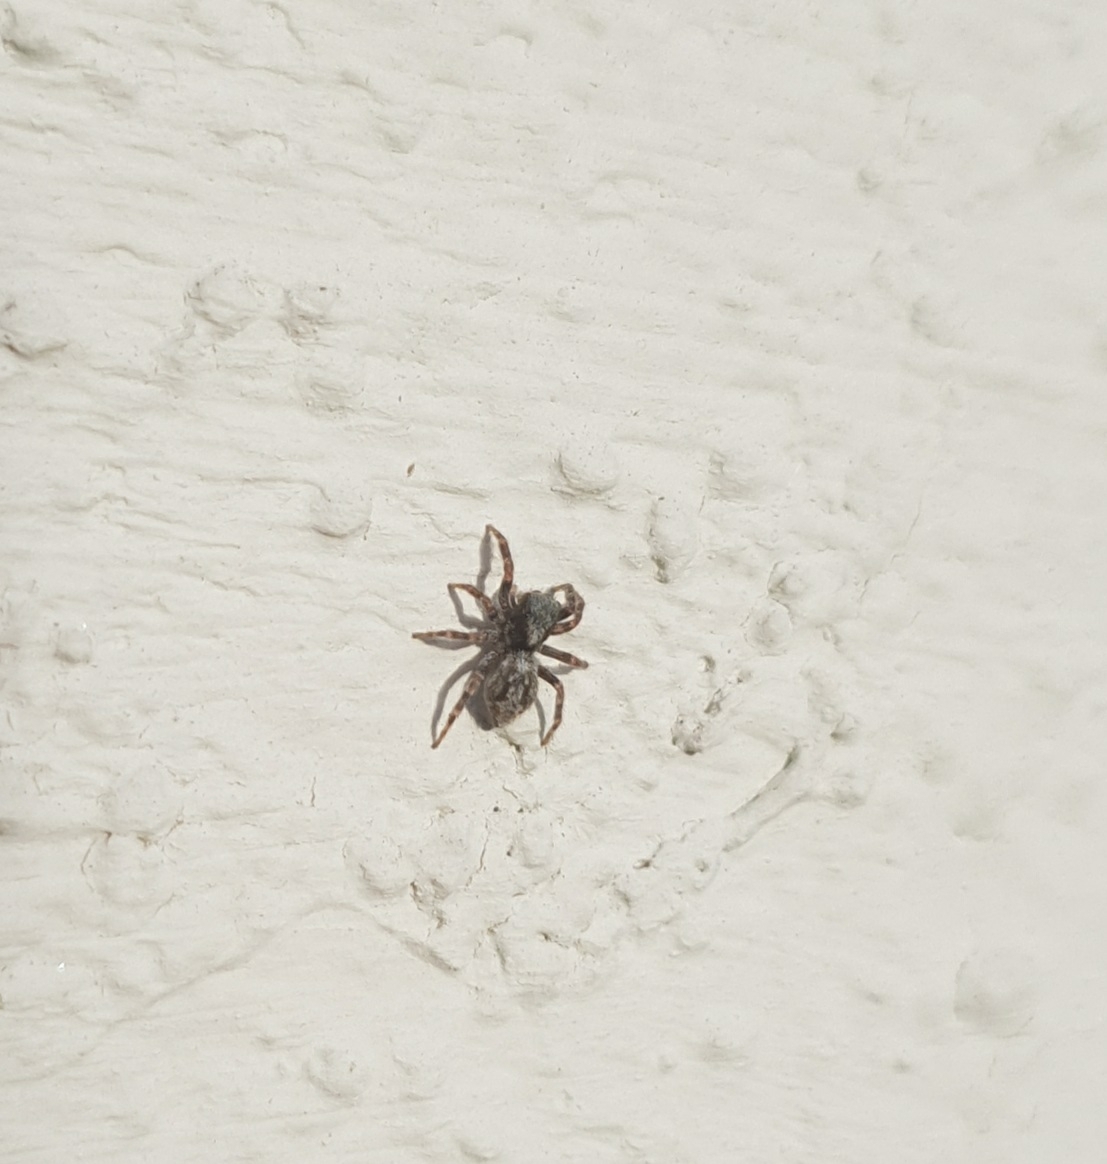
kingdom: Animalia
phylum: Arthropoda
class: Arachnida
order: Araneae
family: Salticidae
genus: Pseudeuophrys
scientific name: Pseudeuophrys lanigera
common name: Jumping spider
